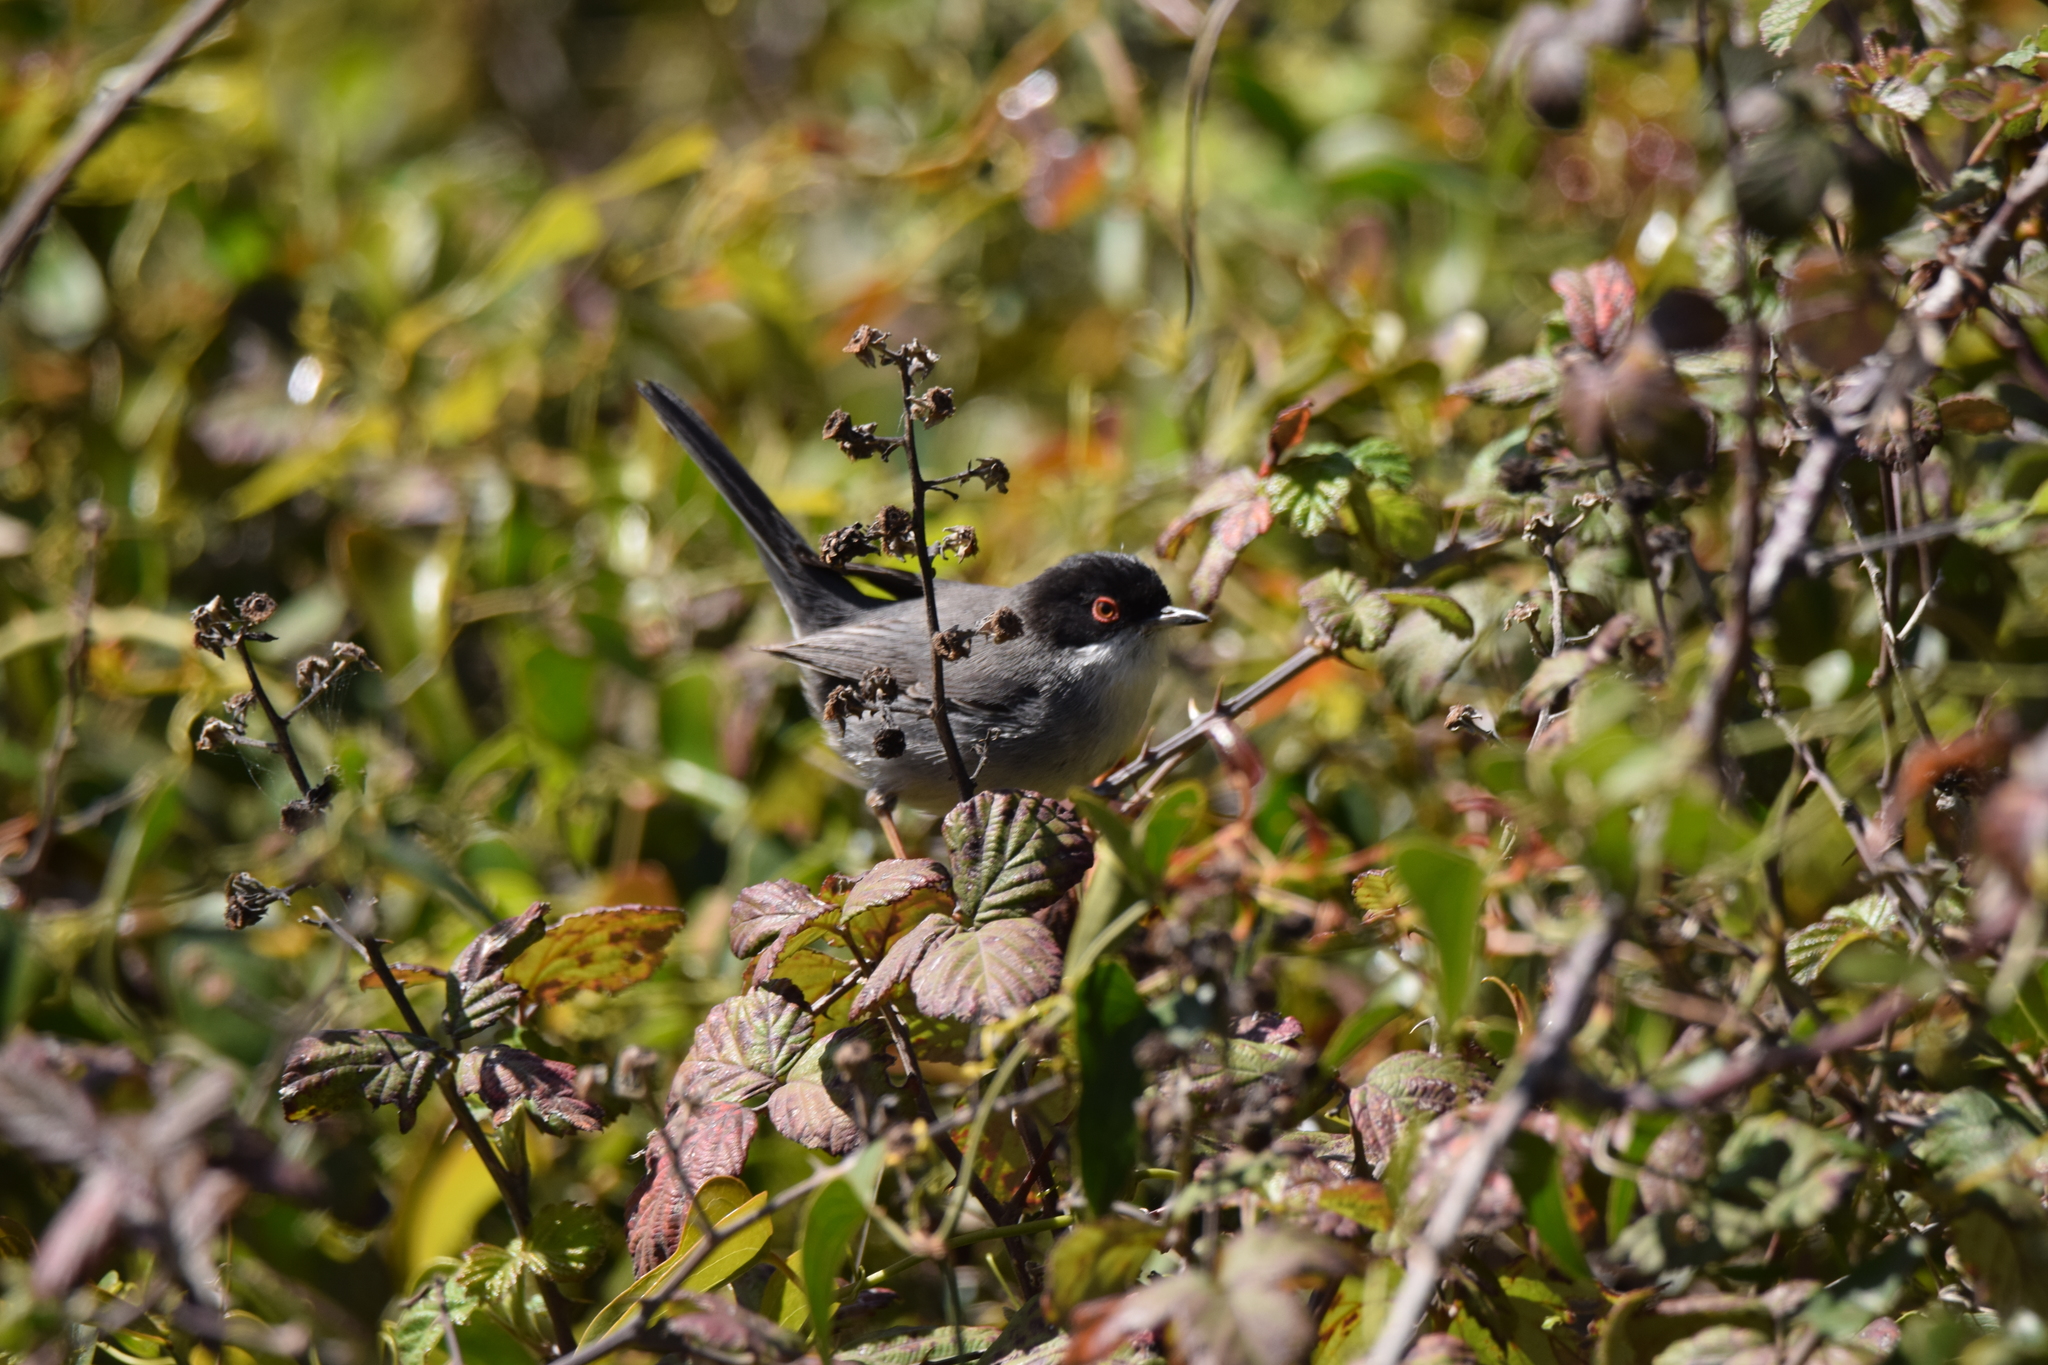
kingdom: Animalia
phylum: Chordata
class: Aves
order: Passeriformes
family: Sylviidae
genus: Curruca
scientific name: Curruca melanocephala
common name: Sardinian warbler
